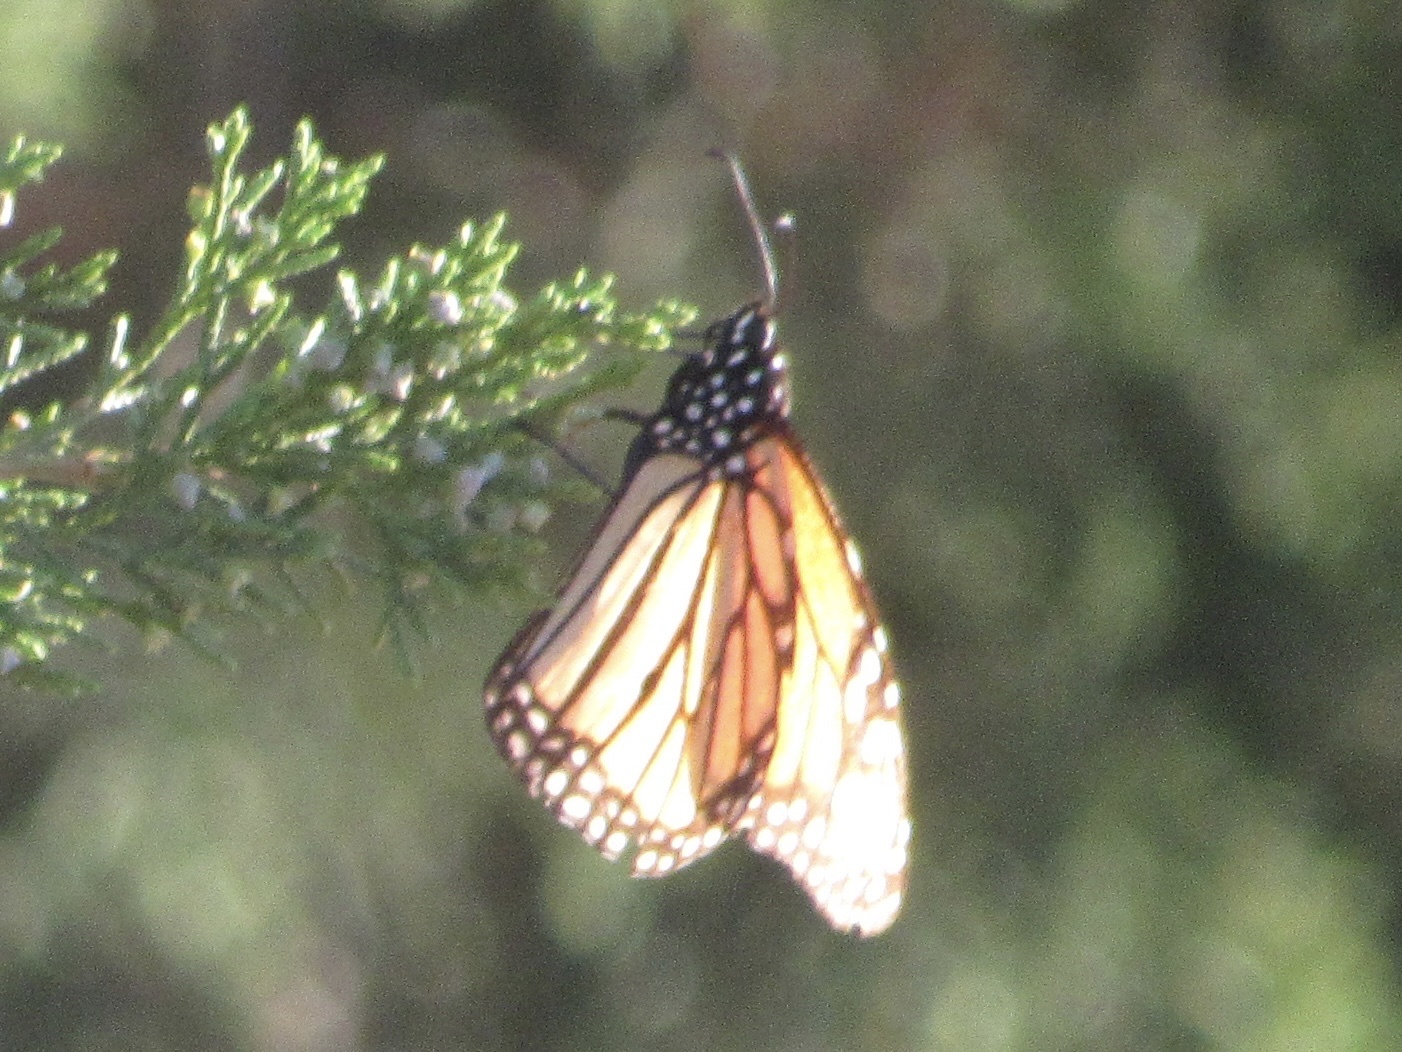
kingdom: Animalia
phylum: Arthropoda
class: Insecta
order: Lepidoptera
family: Nymphalidae
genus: Danaus
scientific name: Danaus plexippus
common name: Monarch
